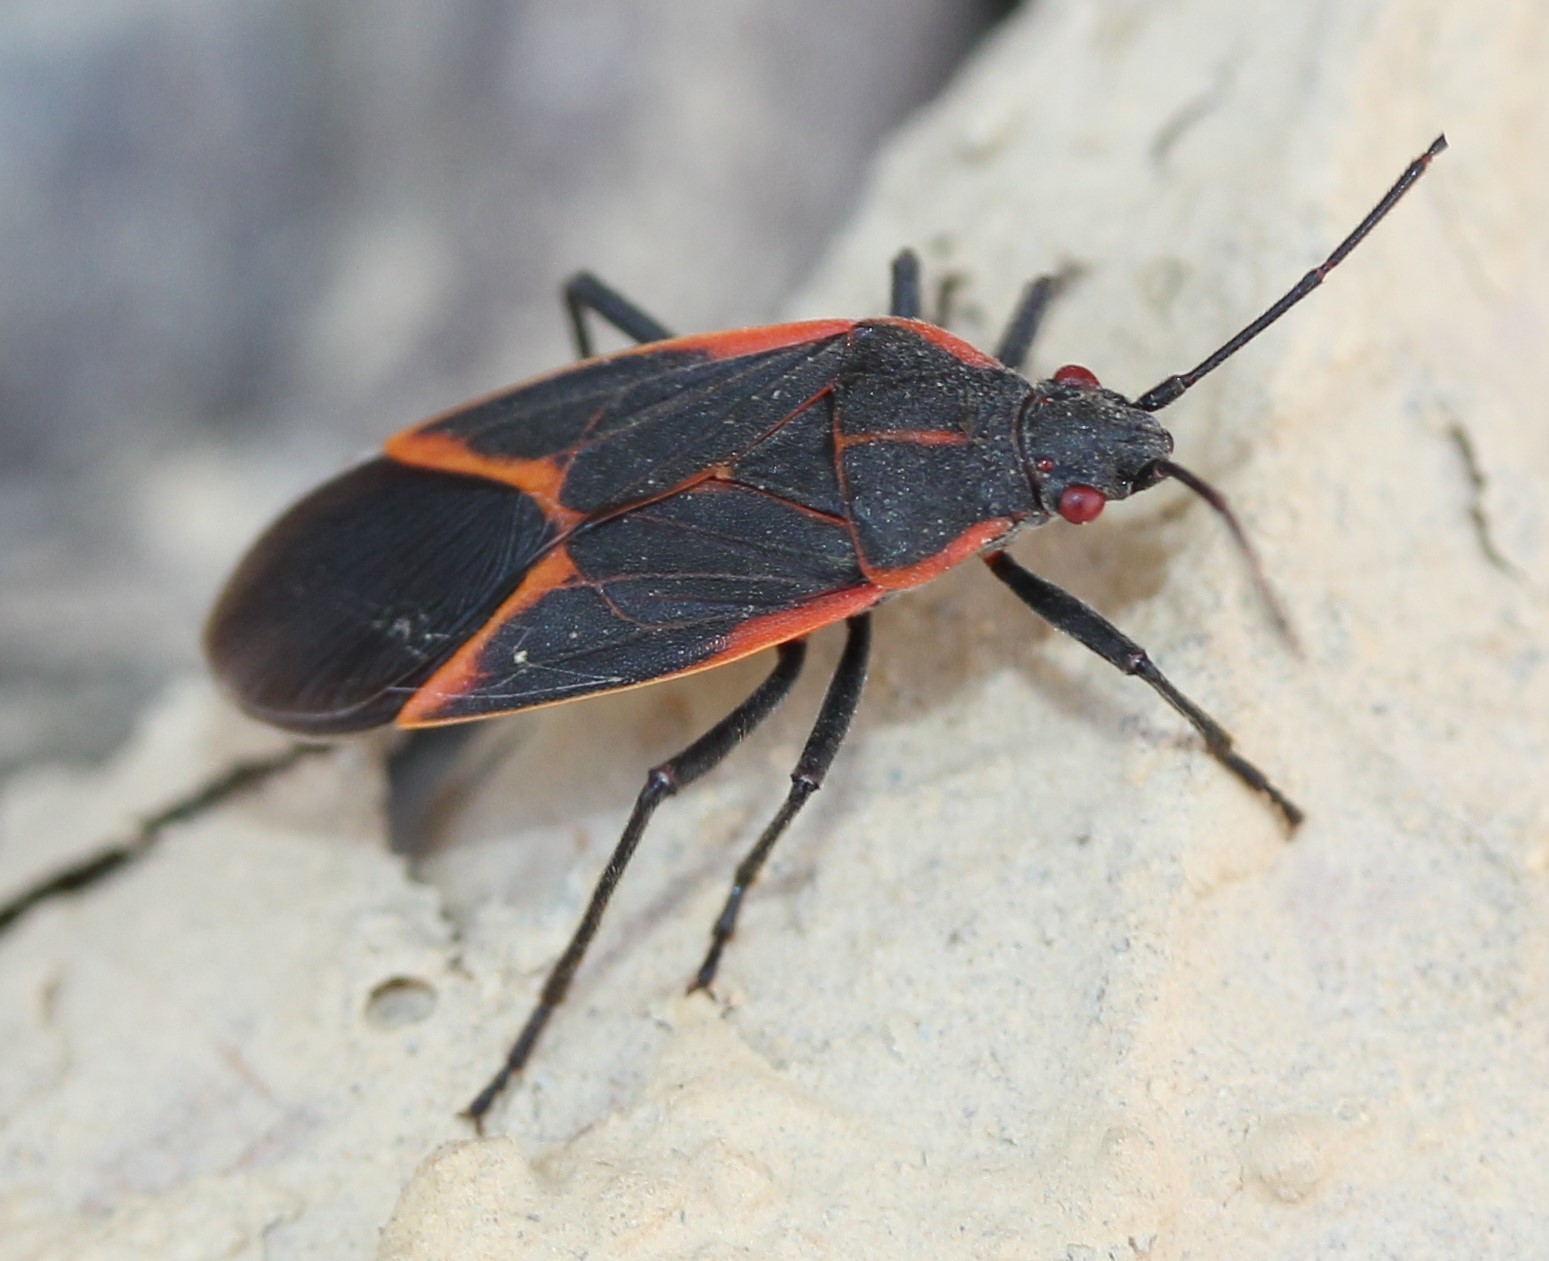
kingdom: Animalia
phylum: Arthropoda
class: Insecta
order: Hemiptera
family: Rhopalidae
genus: Boisea
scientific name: Boisea trivittata
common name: Boxelder bug
